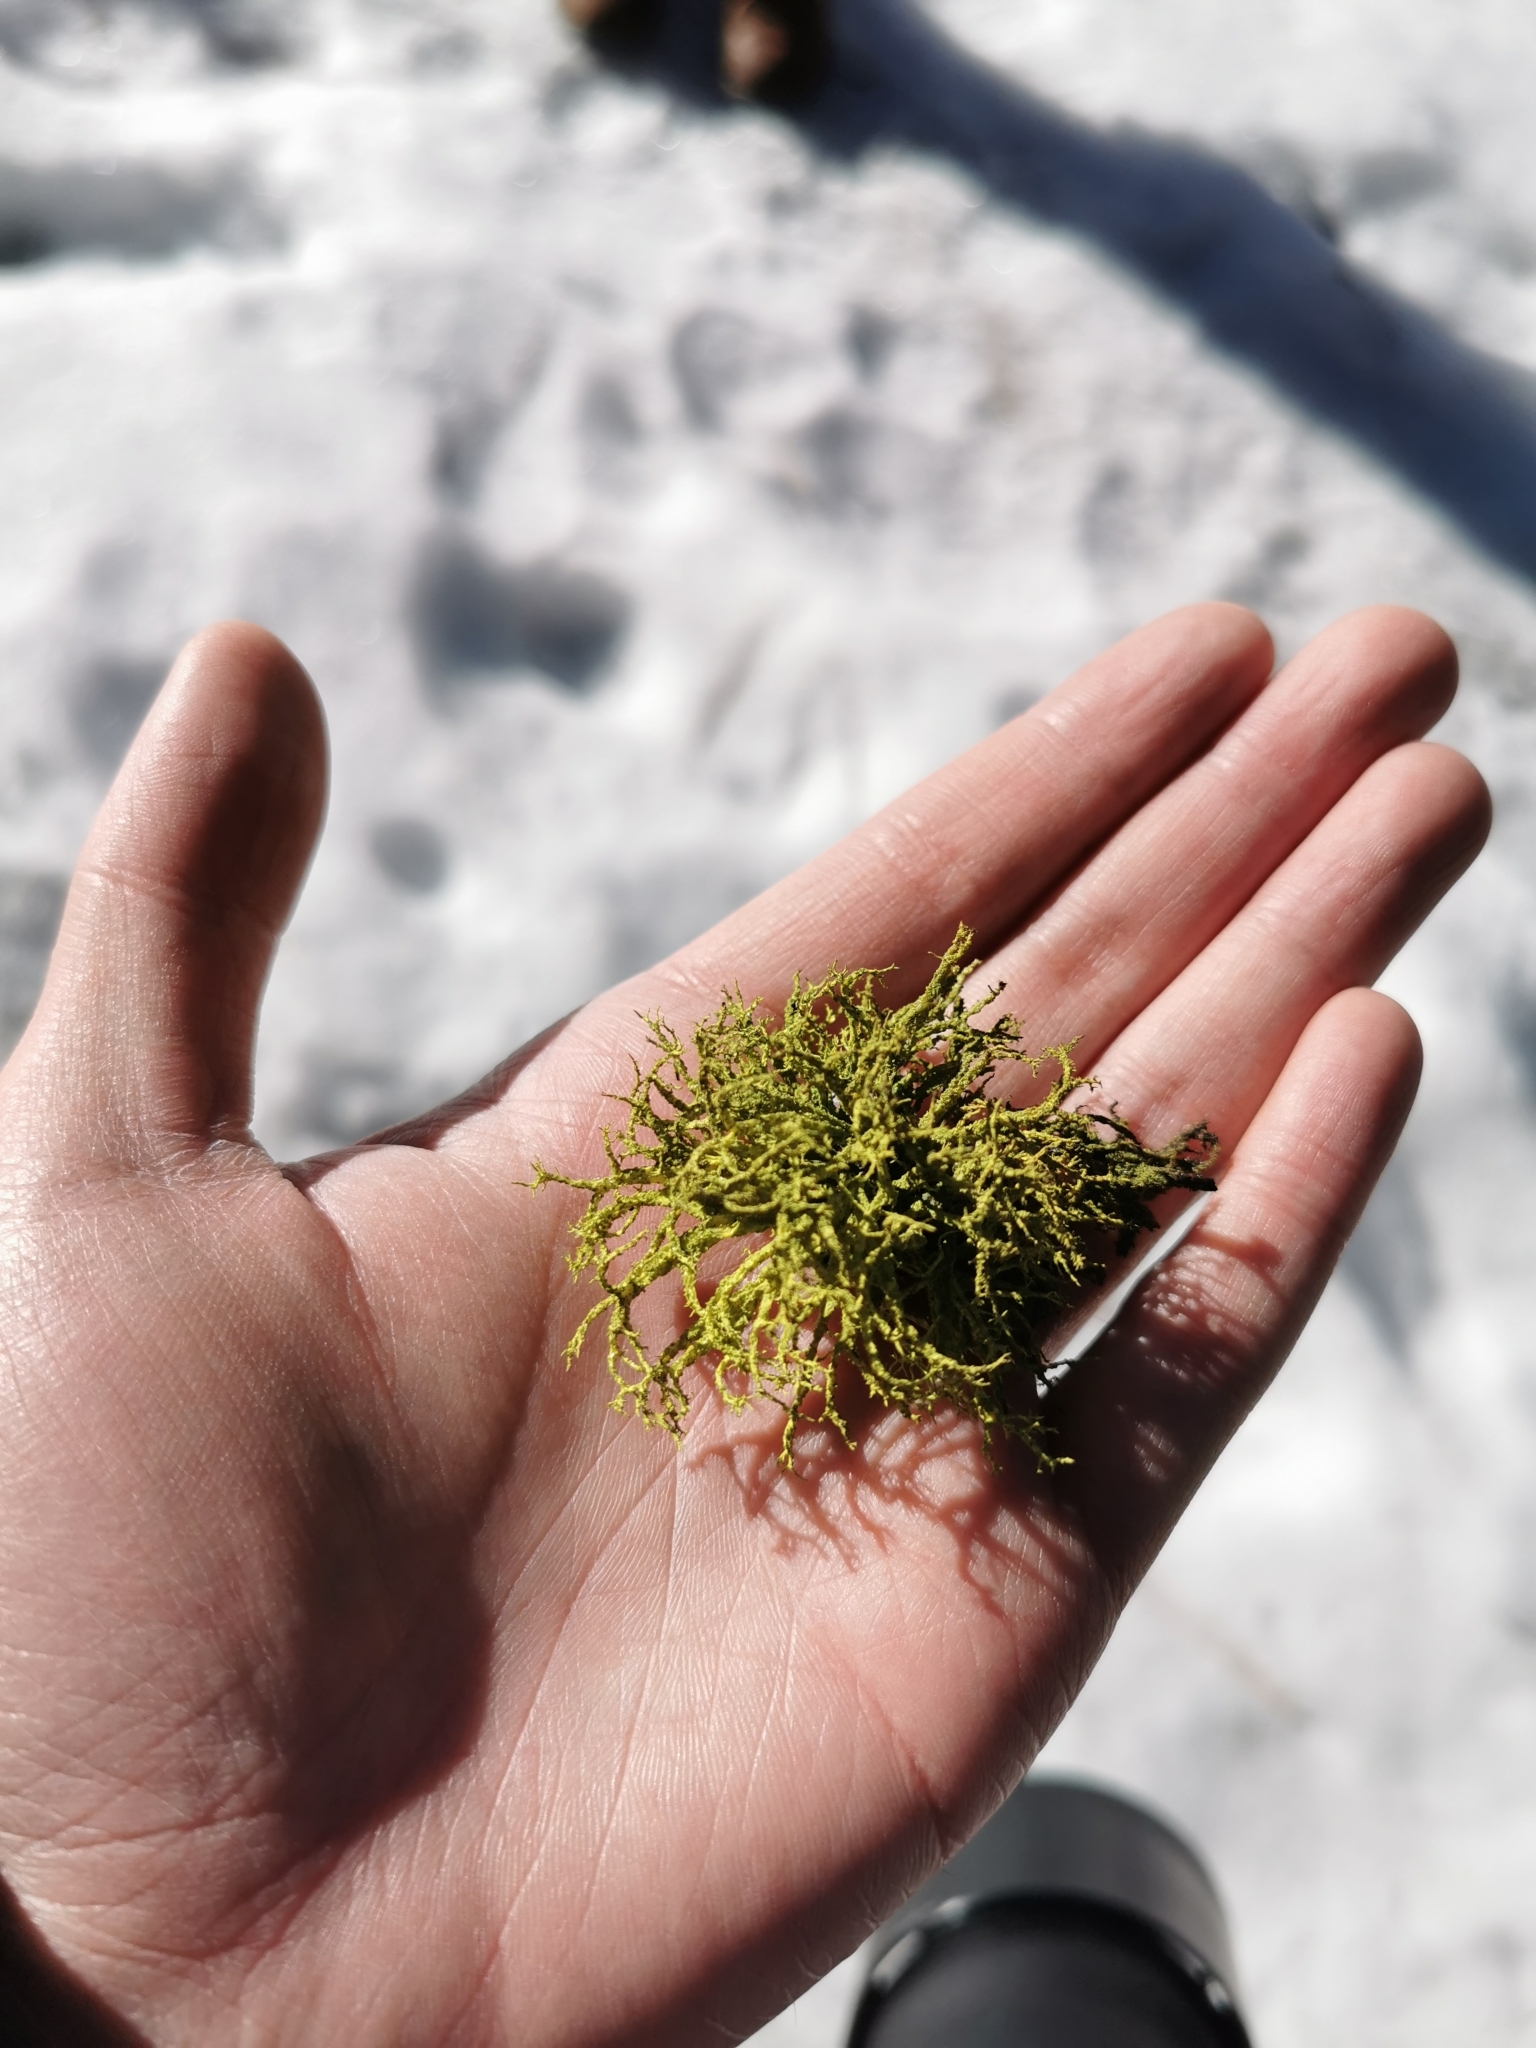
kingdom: Fungi
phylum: Ascomycota
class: Lecanoromycetes
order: Lecanorales
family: Parmeliaceae
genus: Letharia
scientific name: Letharia vulpina
